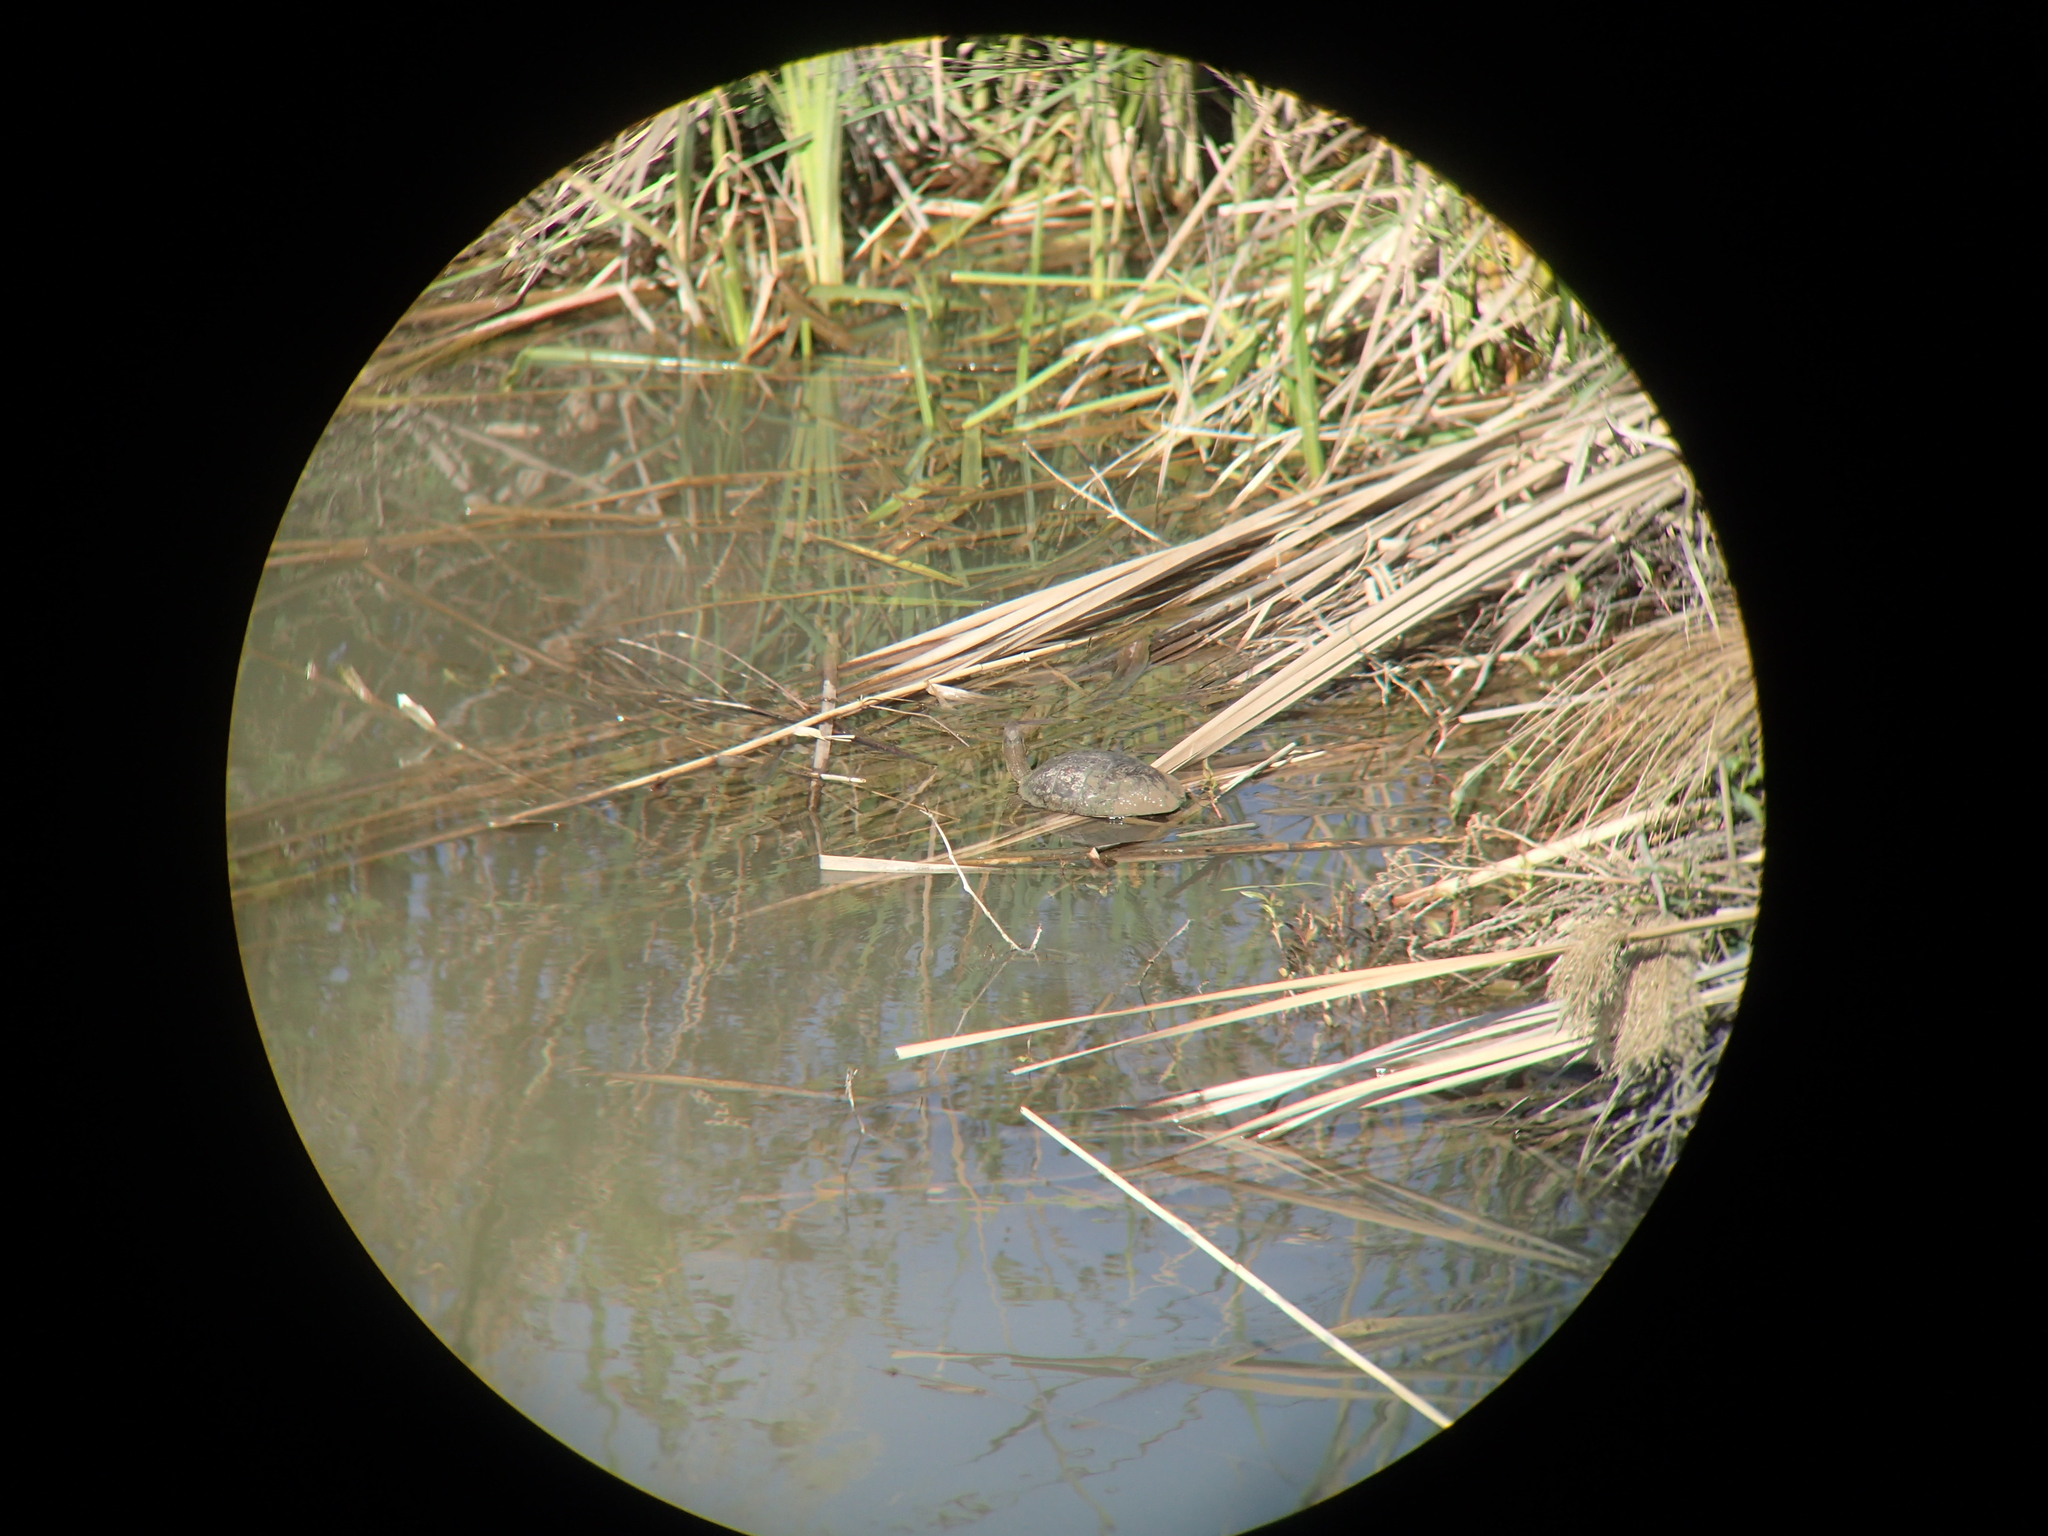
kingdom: Animalia
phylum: Chordata
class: Testudines
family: Geoemydidae
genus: Mauremys
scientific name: Mauremys rivulata
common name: Western caspian turtle
